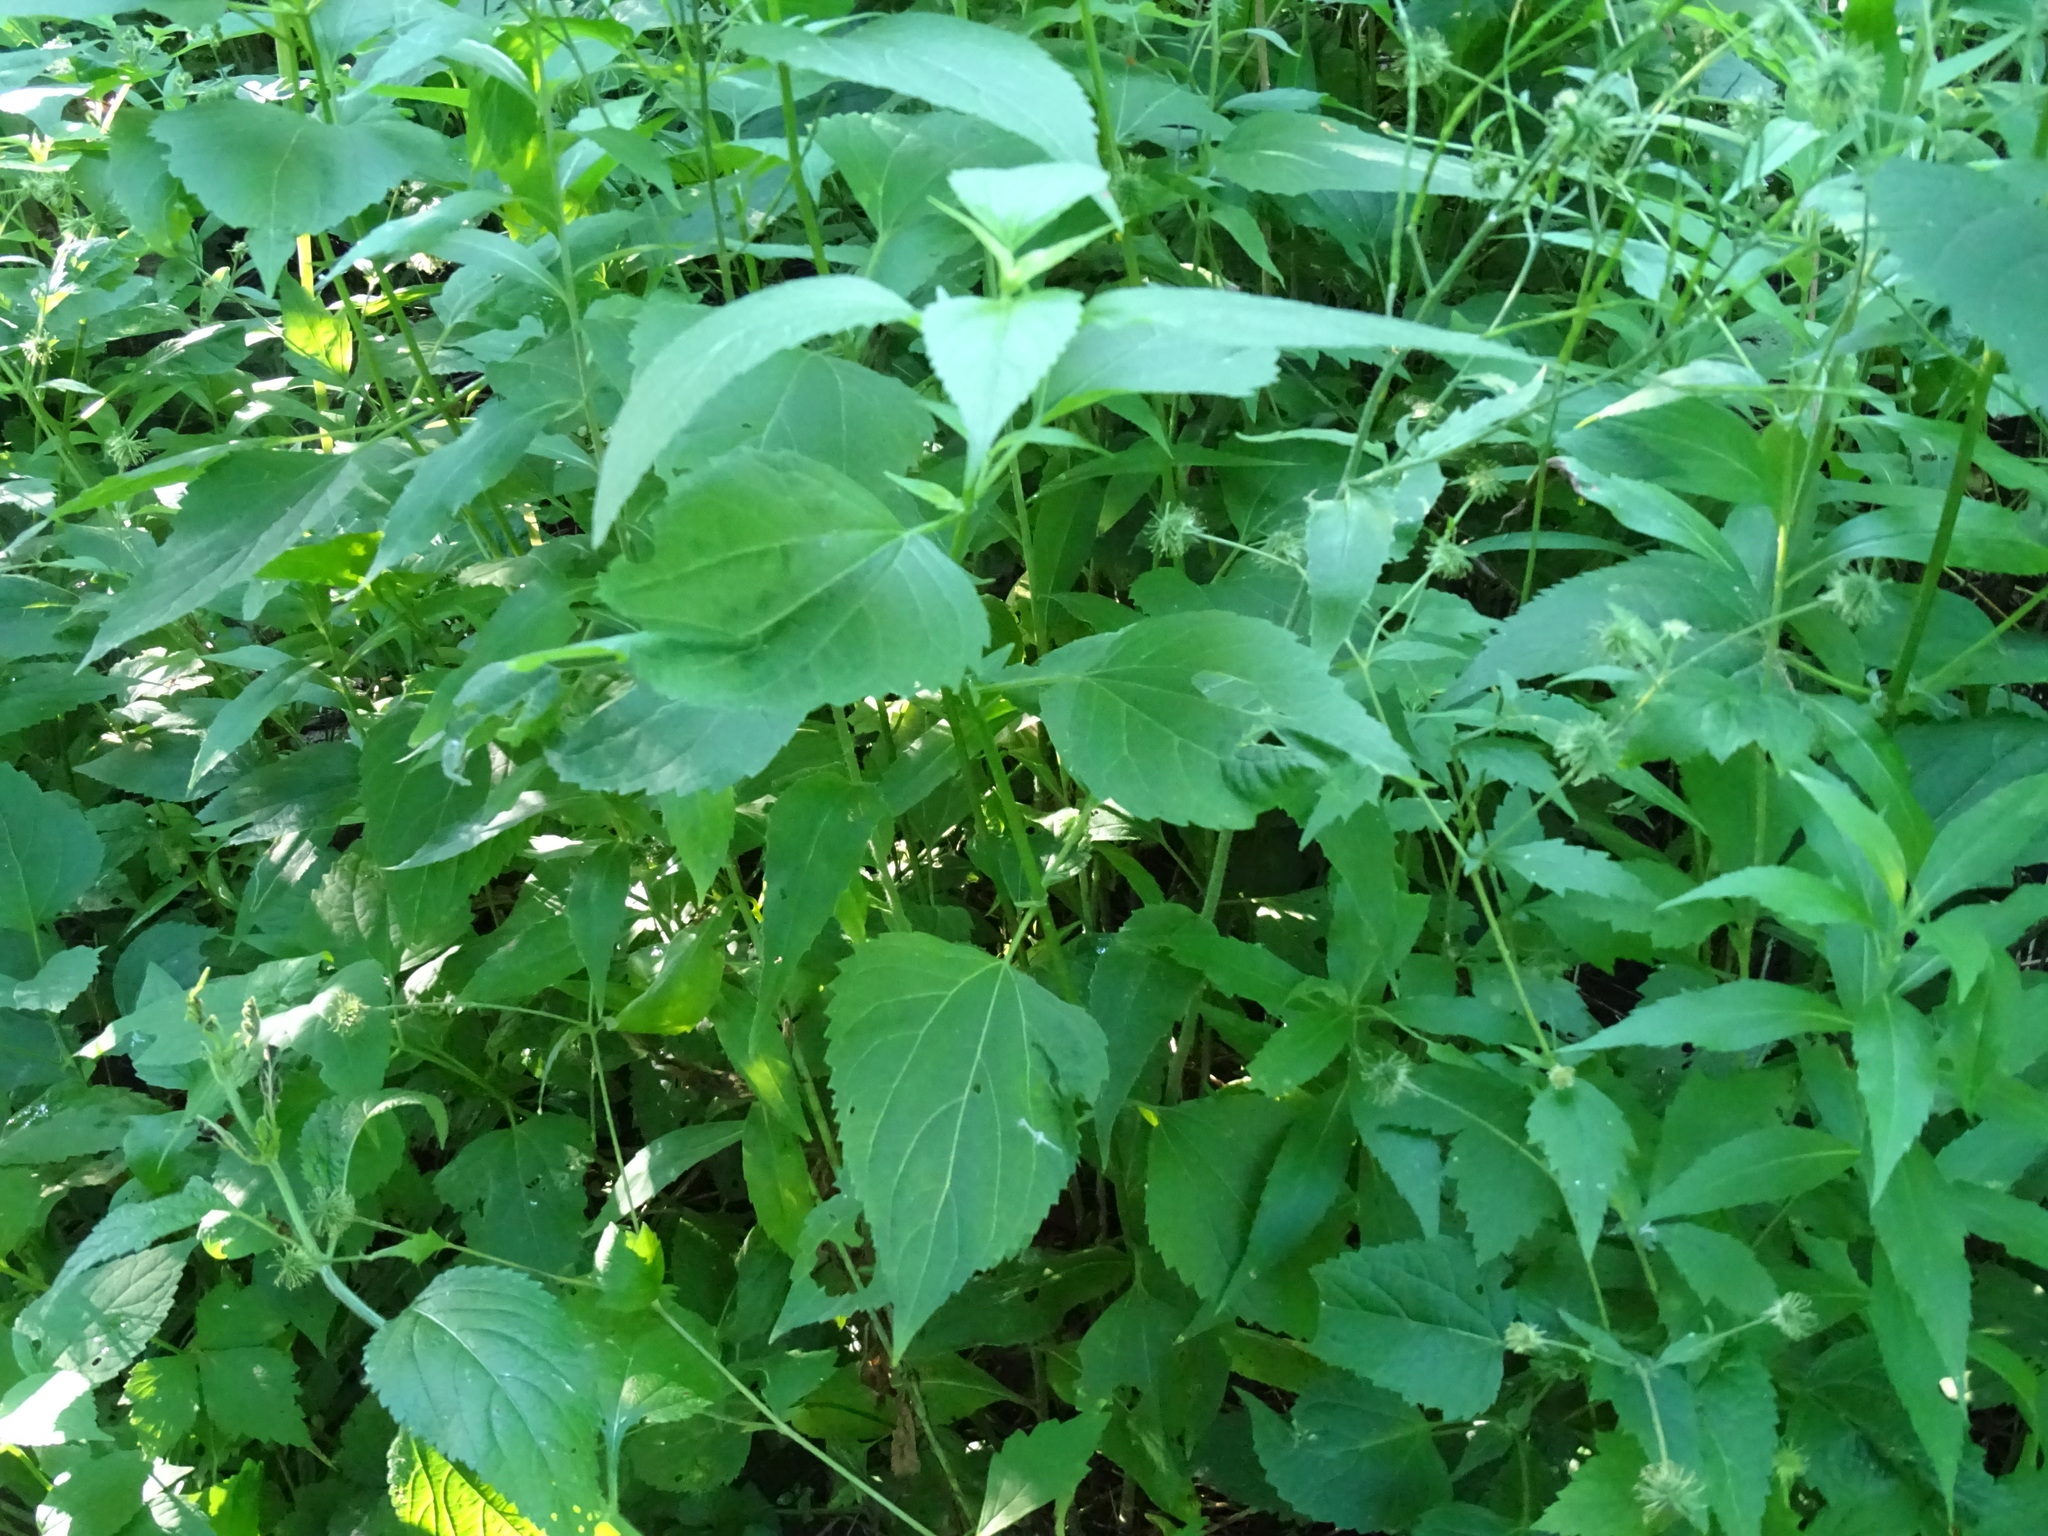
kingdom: Plantae
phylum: Tracheophyta
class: Magnoliopsida
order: Asterales
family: Asteraceae
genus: Ageratina
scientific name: Ageratina altissima
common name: White snakeroot
